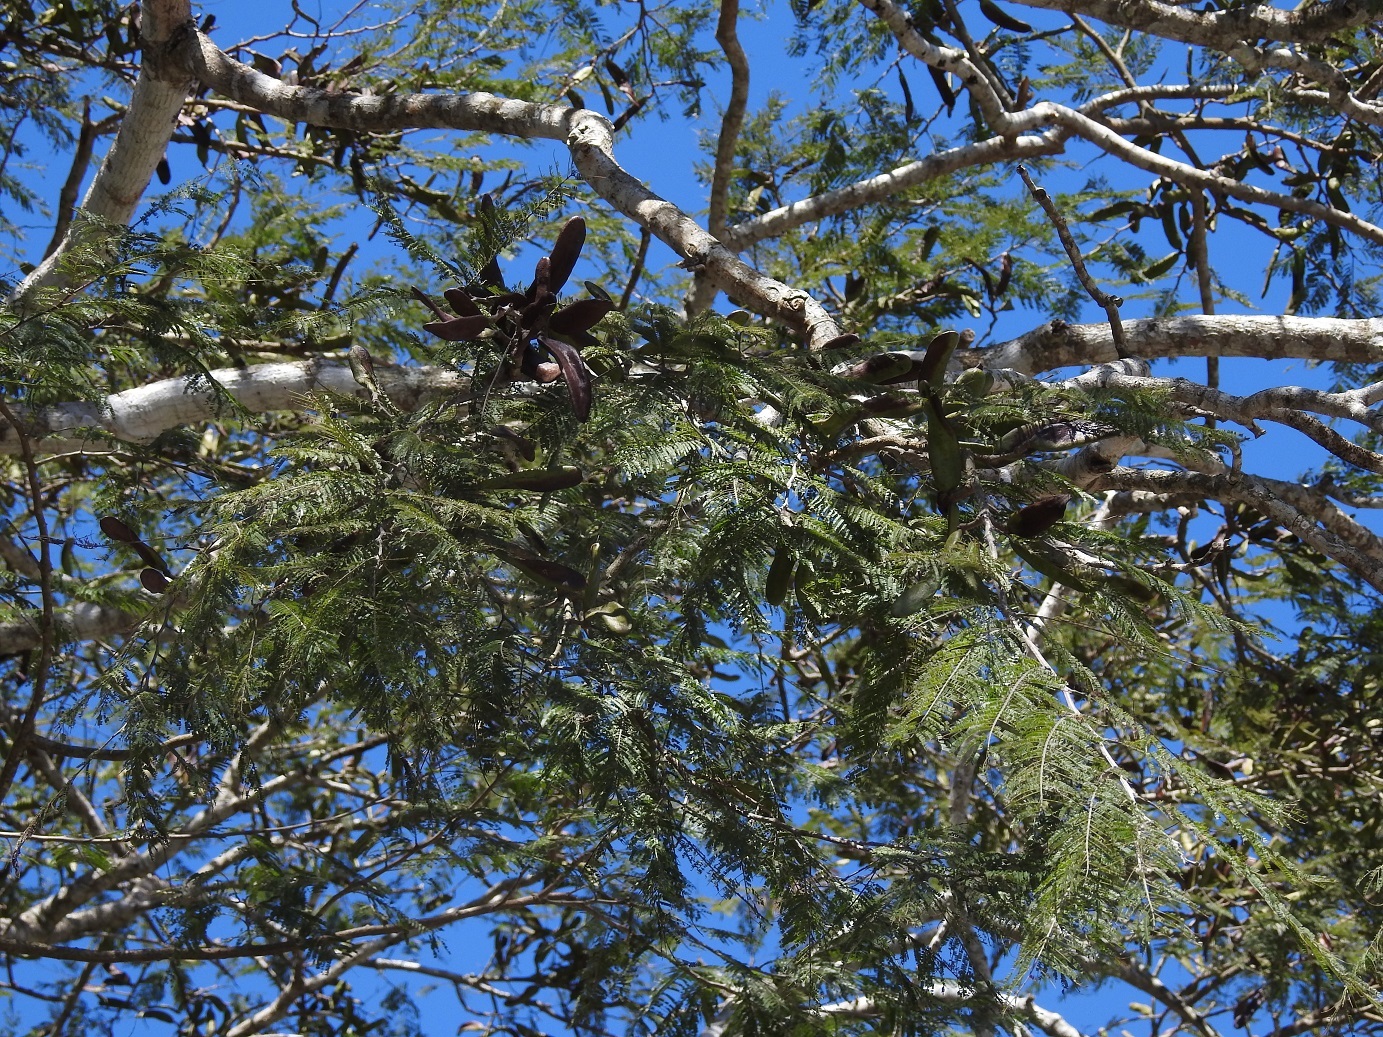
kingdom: Plantae
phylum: Tracheophyta
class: Magnoliopsida
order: Fabales
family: Fabaceae
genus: Vachellia
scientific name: Vachellia pennatula
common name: Fern-leaf acacia
